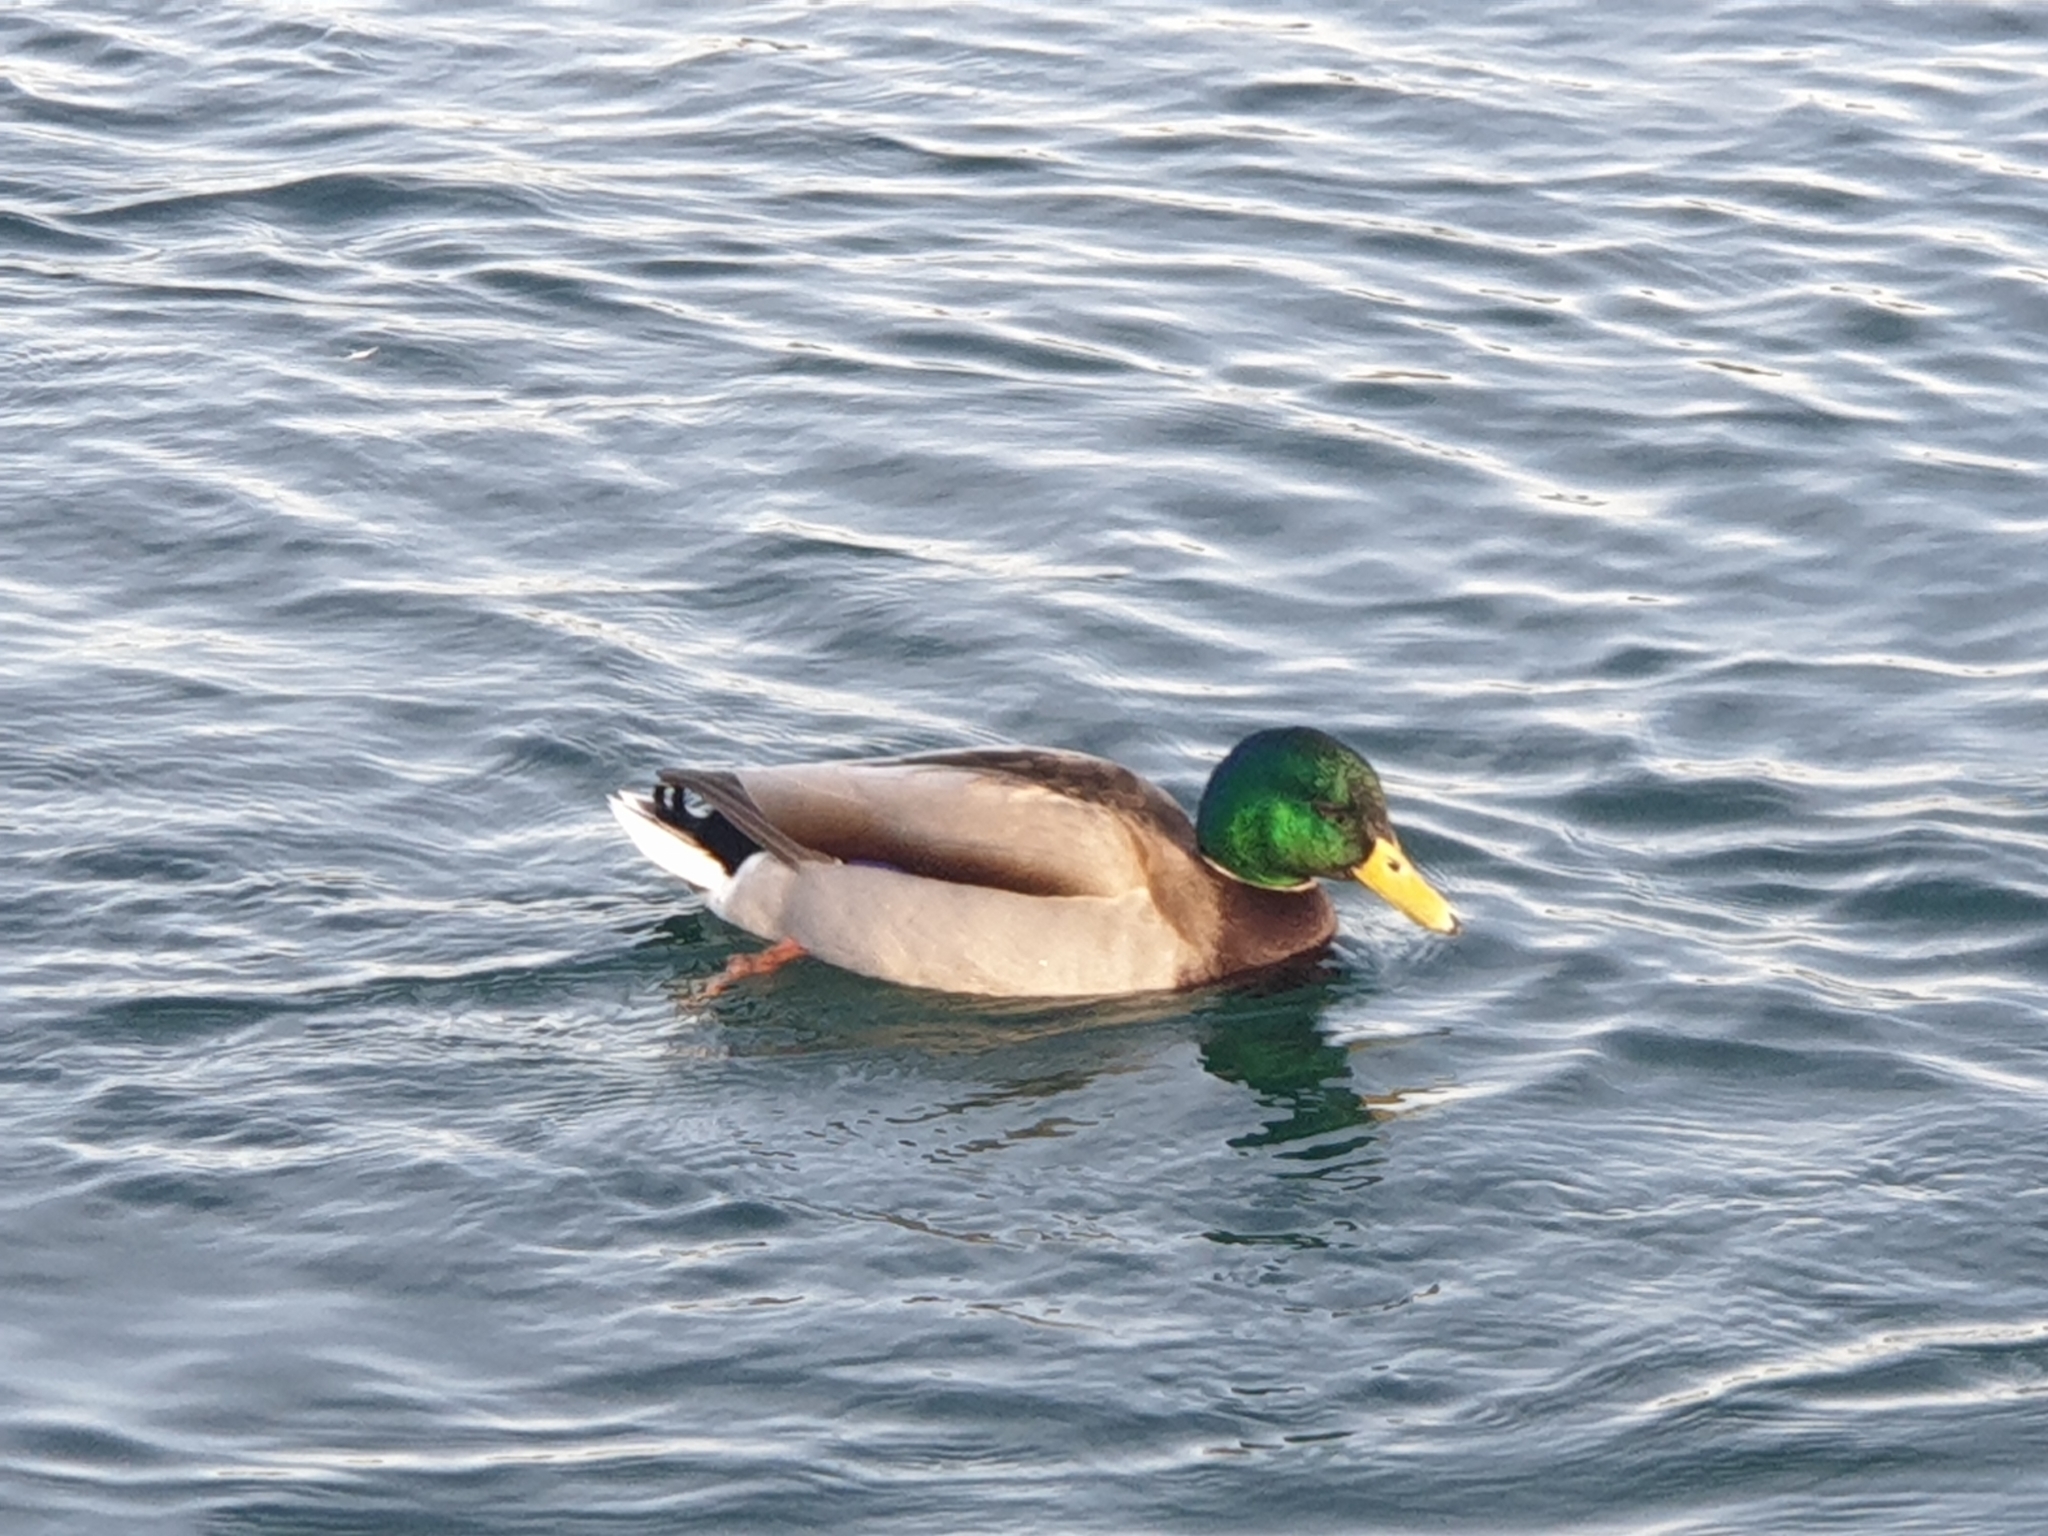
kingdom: Animalia
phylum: Chordata
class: Aves
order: Anseriformes
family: Anatidae
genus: Anas
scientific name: Anas platyrhynchos
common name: Mallard
